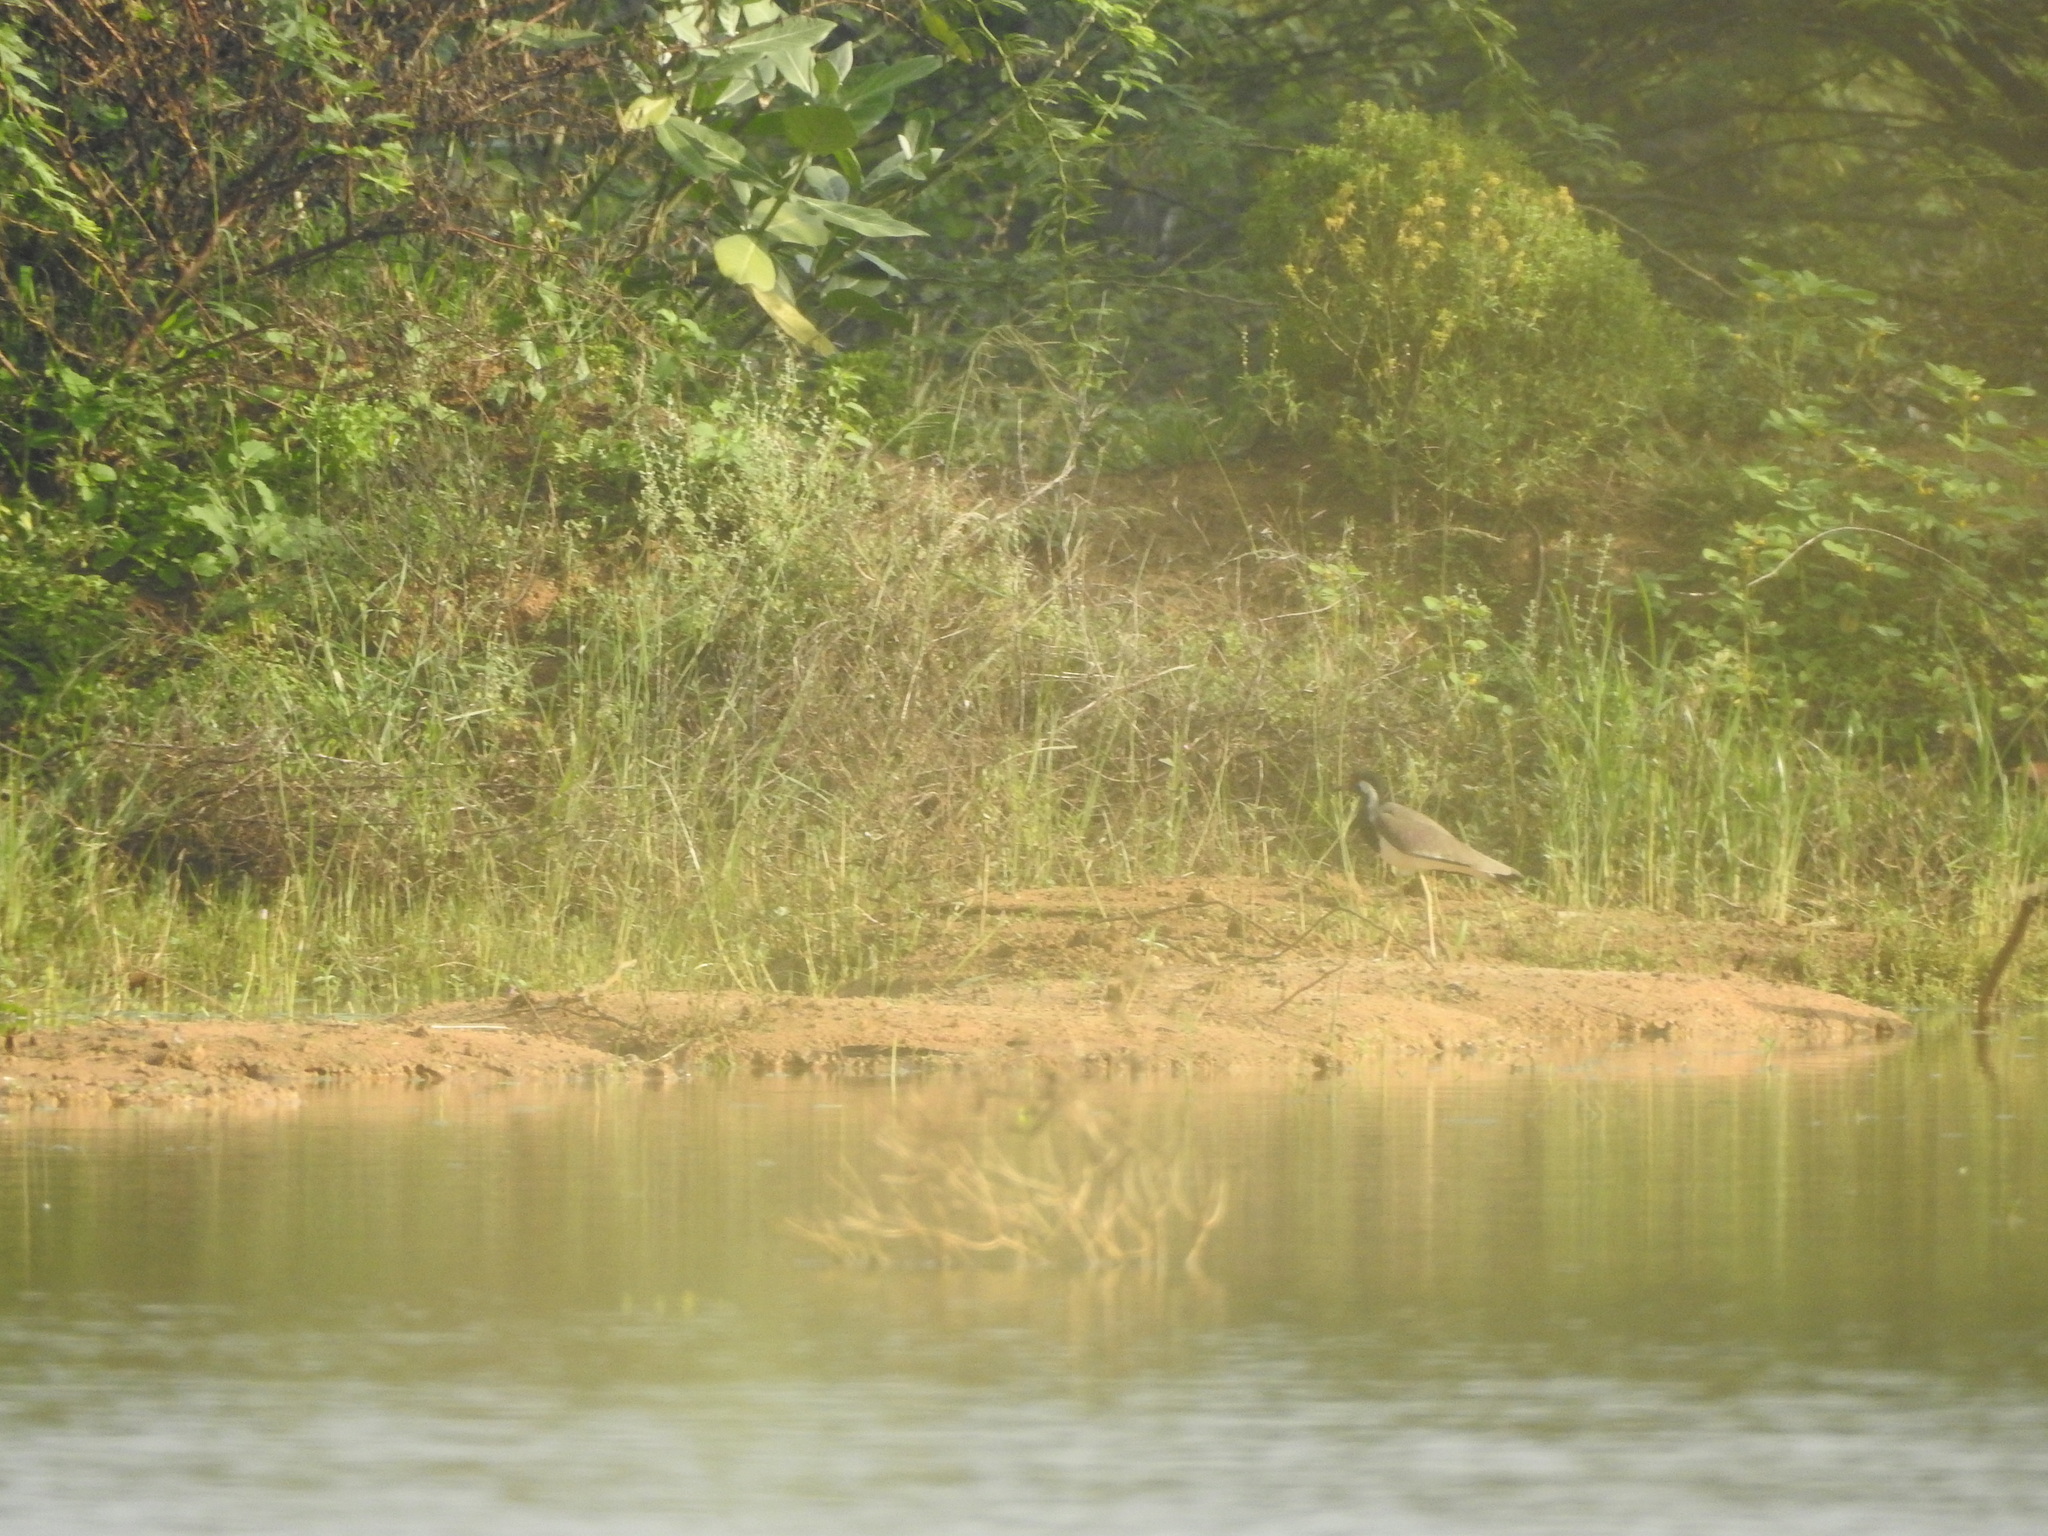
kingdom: Animalia
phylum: Chordata
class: Aves
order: Charadriiformes
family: Charadriidae
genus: Vanellus
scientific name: Vanellus indicus
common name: Red-wattled lapwing
